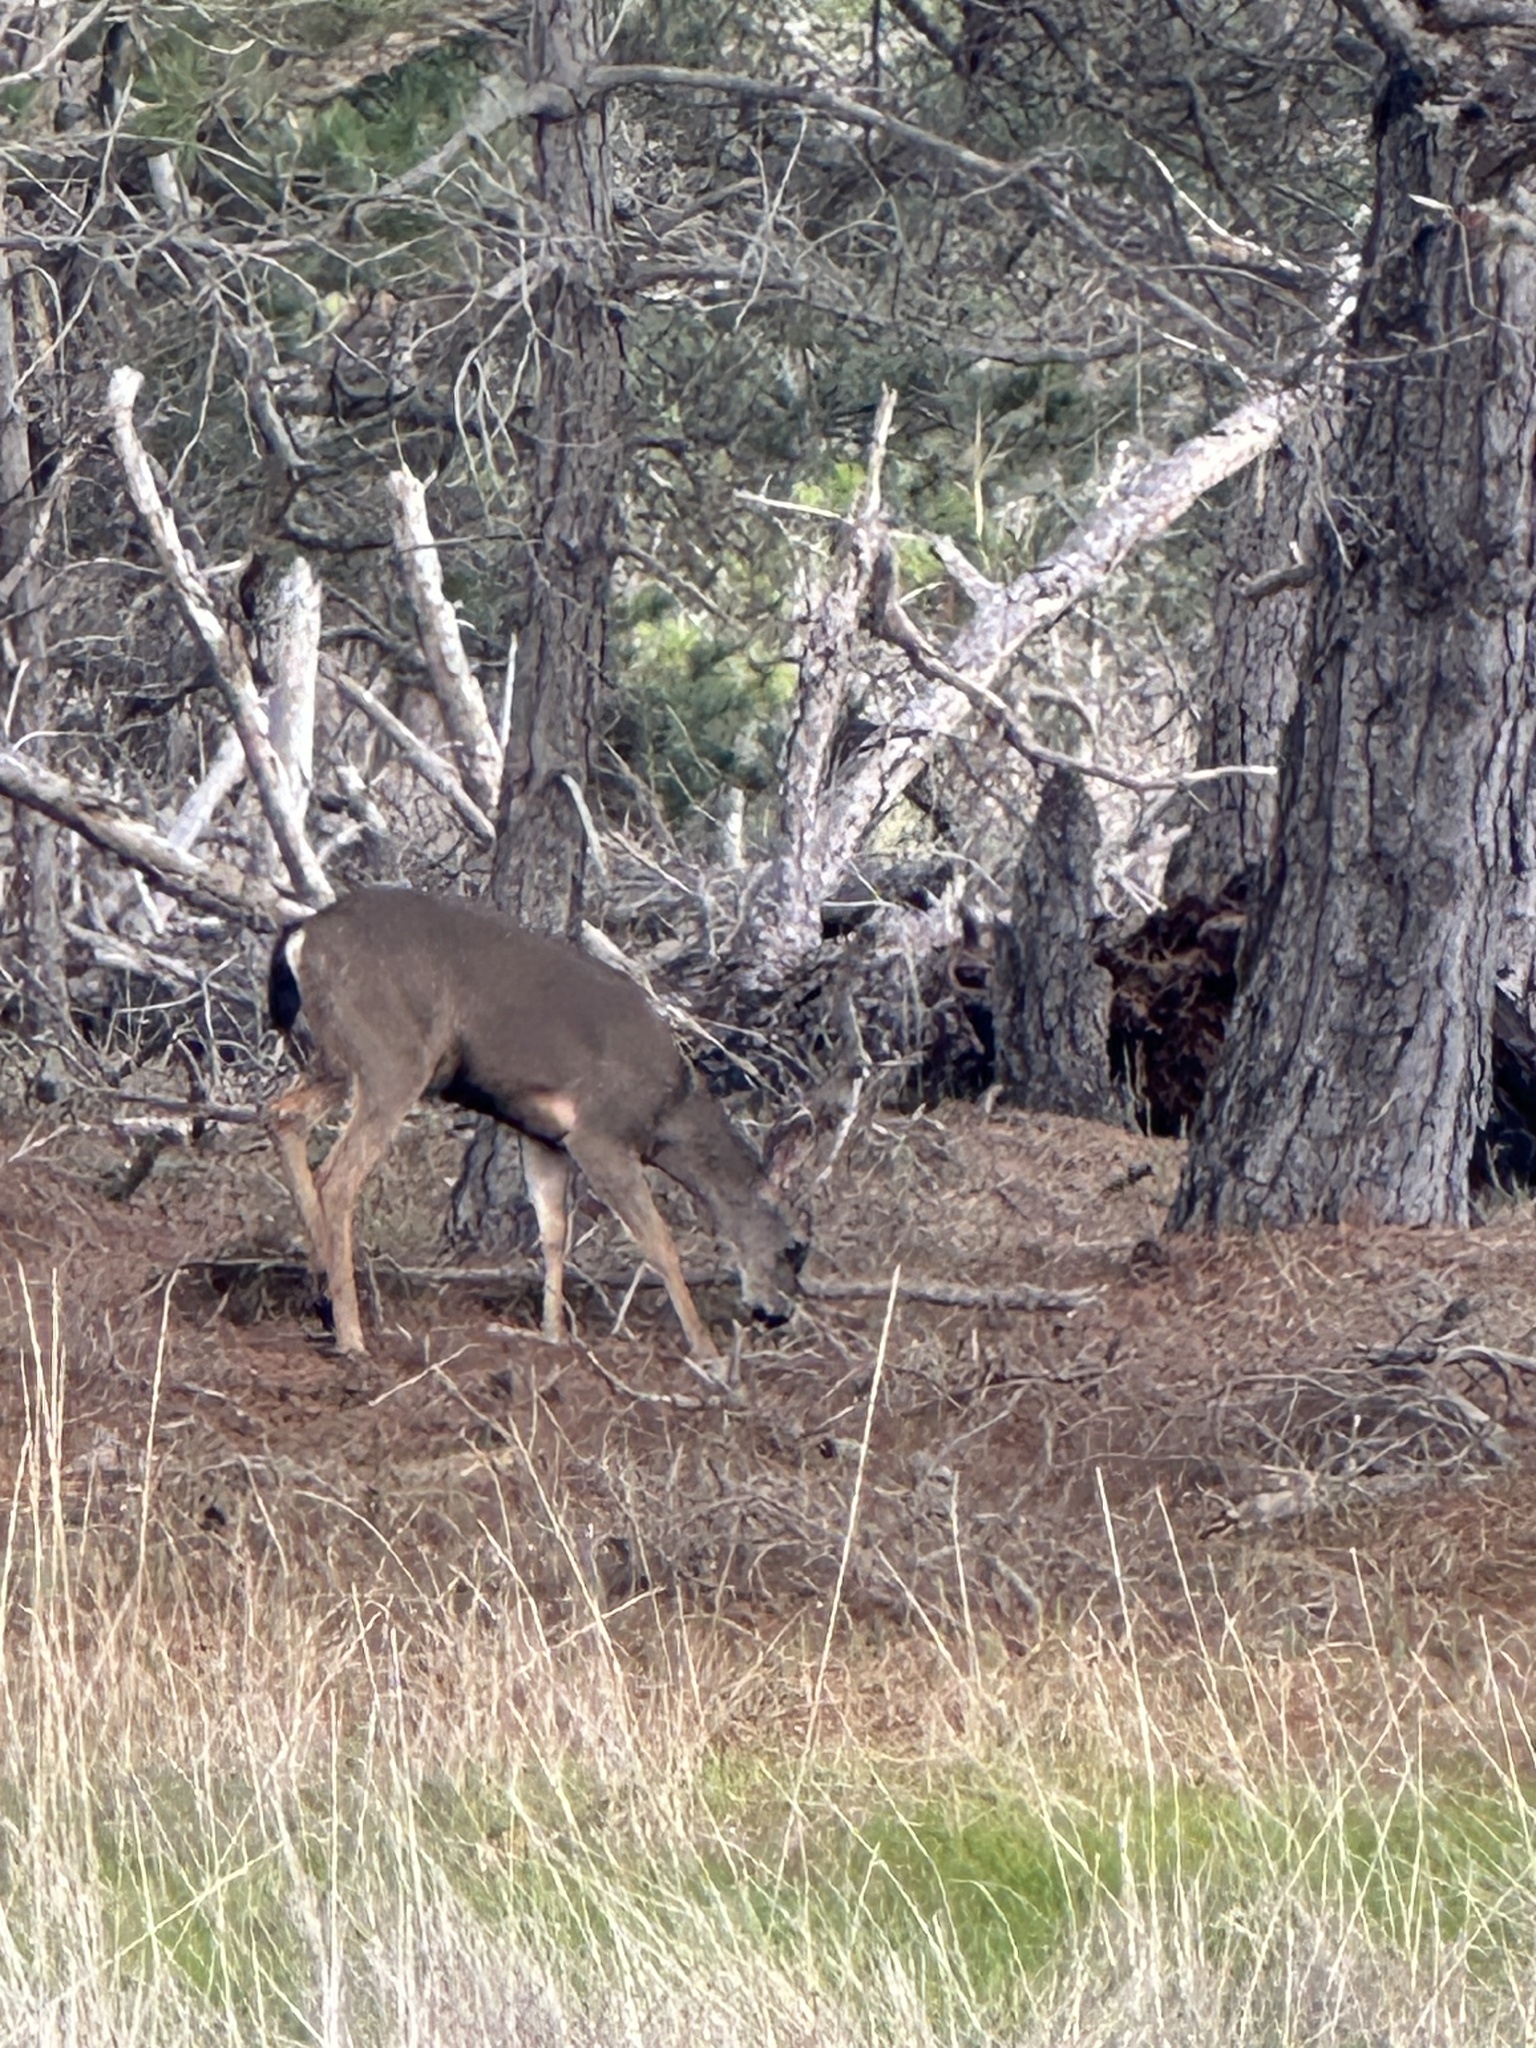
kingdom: Animalia
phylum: Chordata
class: Mammalia
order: Artiodactyla
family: Cervidae
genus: Odocoileus
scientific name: Odocoileus hemionus
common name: Mule deer
